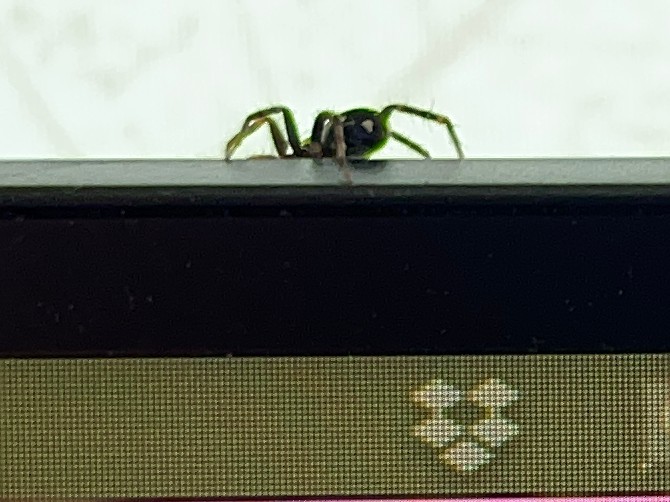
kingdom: Animalia
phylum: Arthropoda
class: Arachnida
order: Araneae
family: Corinnidae
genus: Nyssus
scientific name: Nyssus coloripes
